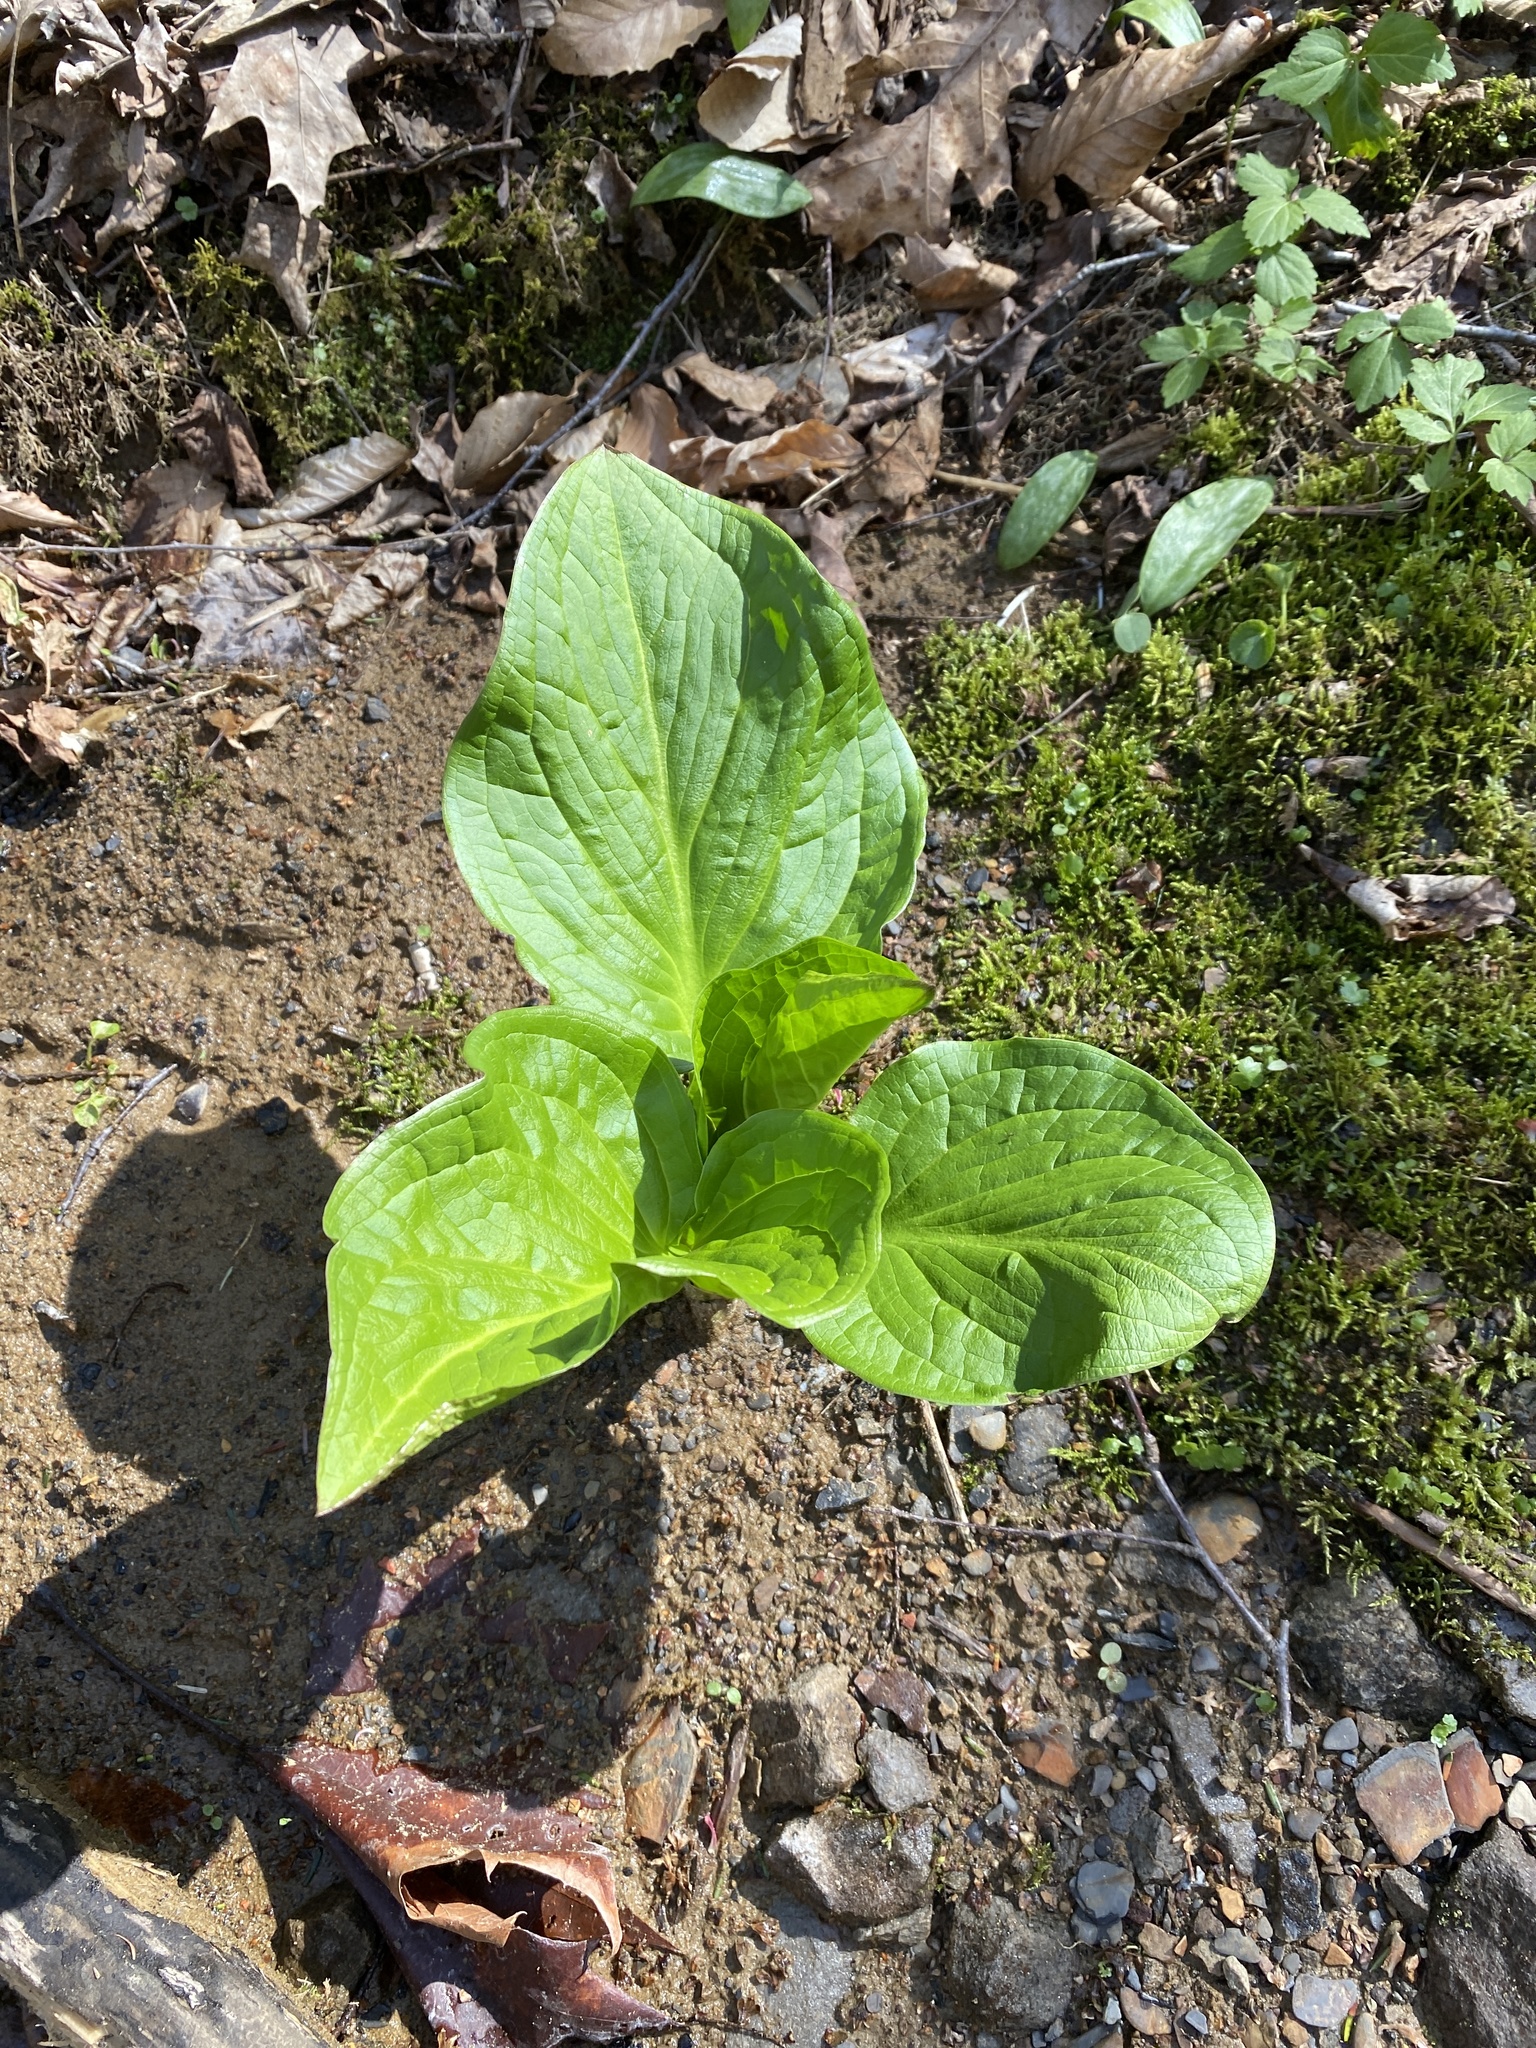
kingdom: Plantae
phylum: Tracheophyta
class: Liliopsida
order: Alismatales
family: Araceae
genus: Symplocarpus
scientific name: Symplocarpus foetidus
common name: Eastern skunk cabbage
